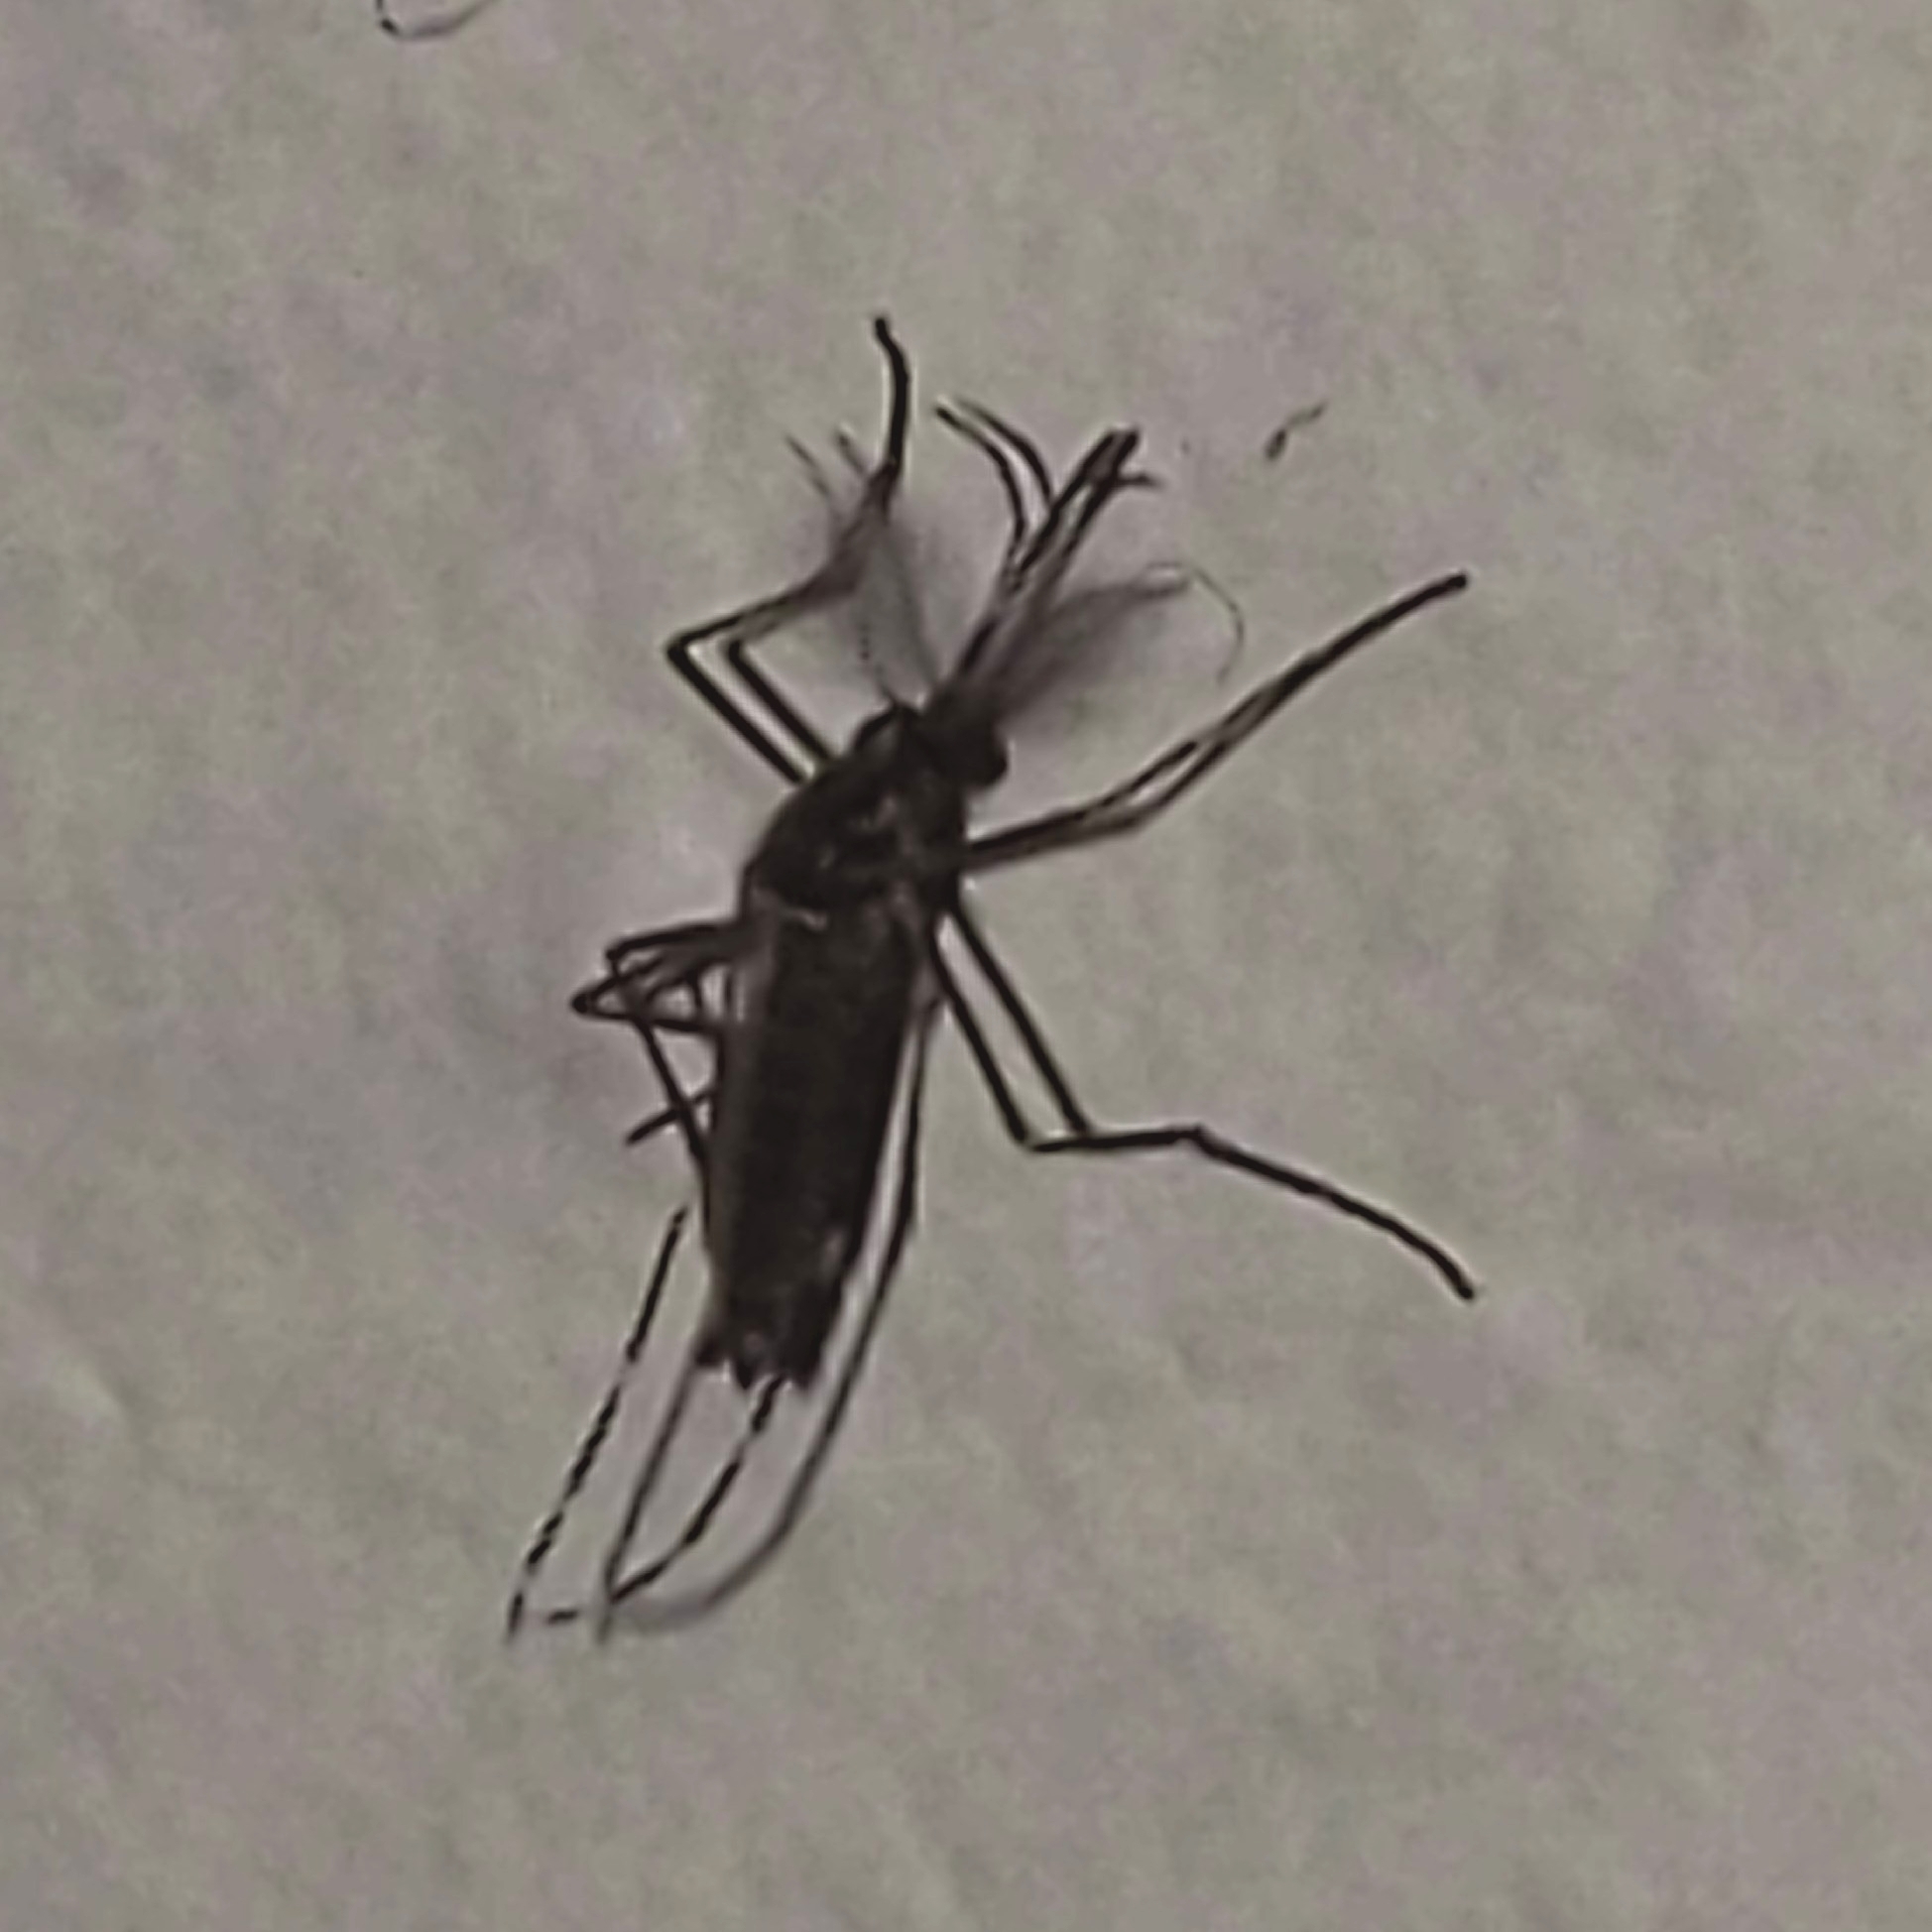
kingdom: Animalia
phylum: Arthropoda
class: Insecta
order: Diptera
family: Culicidae
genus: Aedes
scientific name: Aedes aegypti
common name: Yellow fever mosquito
